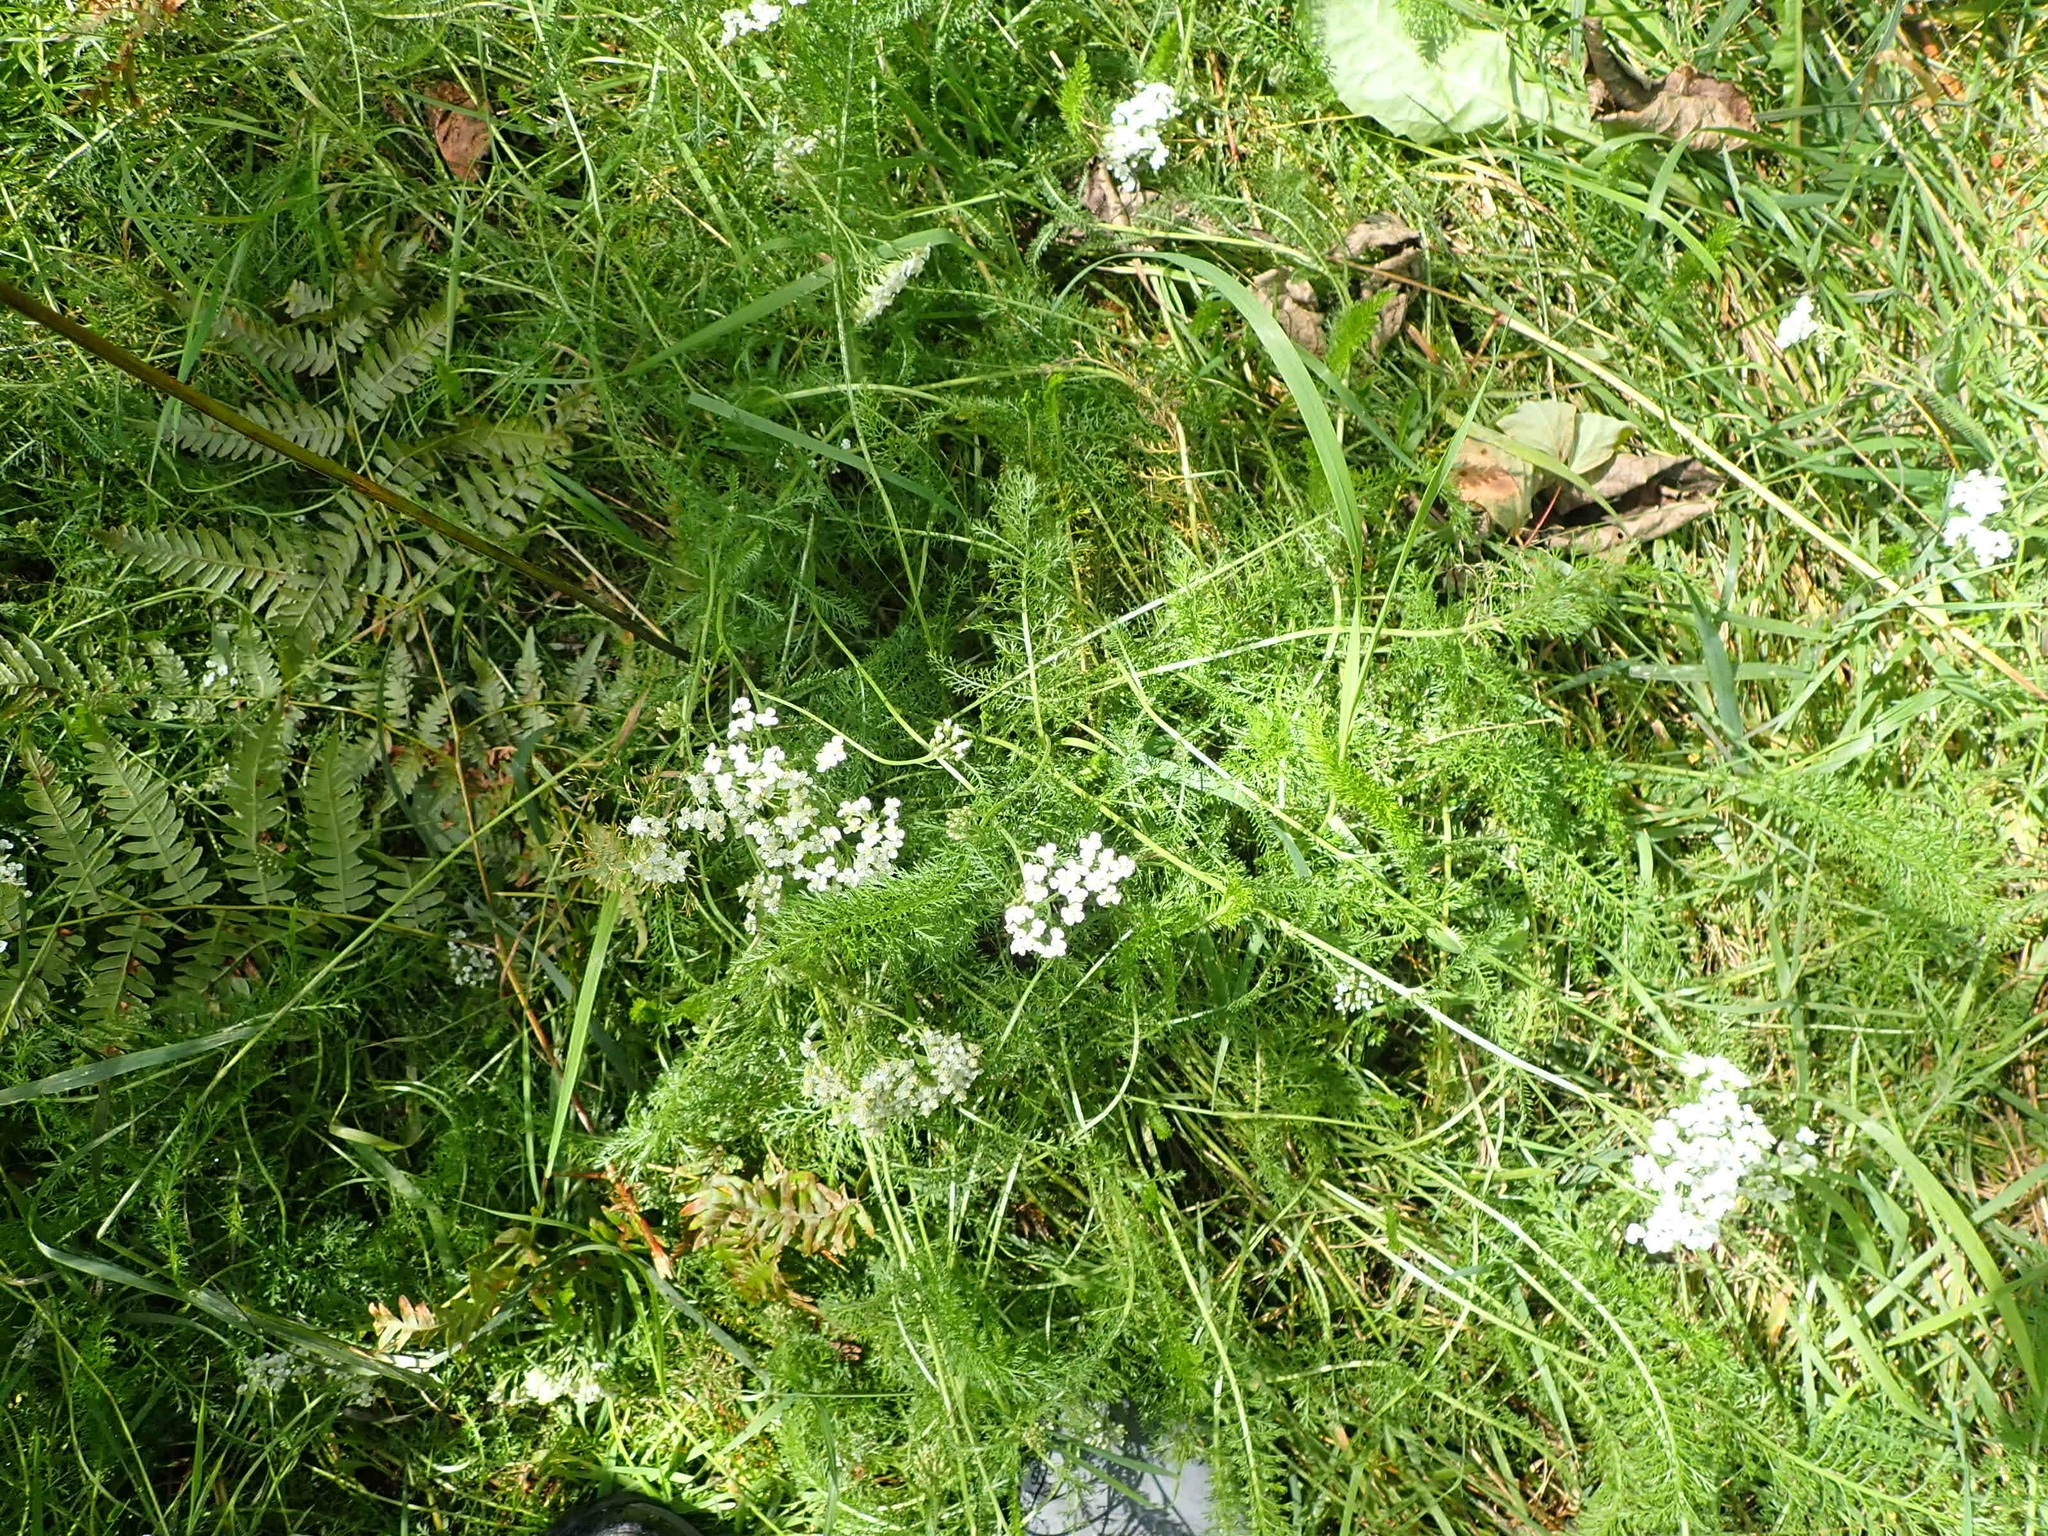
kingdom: Plantae
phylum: Tracheophyta
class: Magnoliopsida
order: Asterales
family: Asteraceae
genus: Achillea
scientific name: Achillea millefolium
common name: Yarrow
